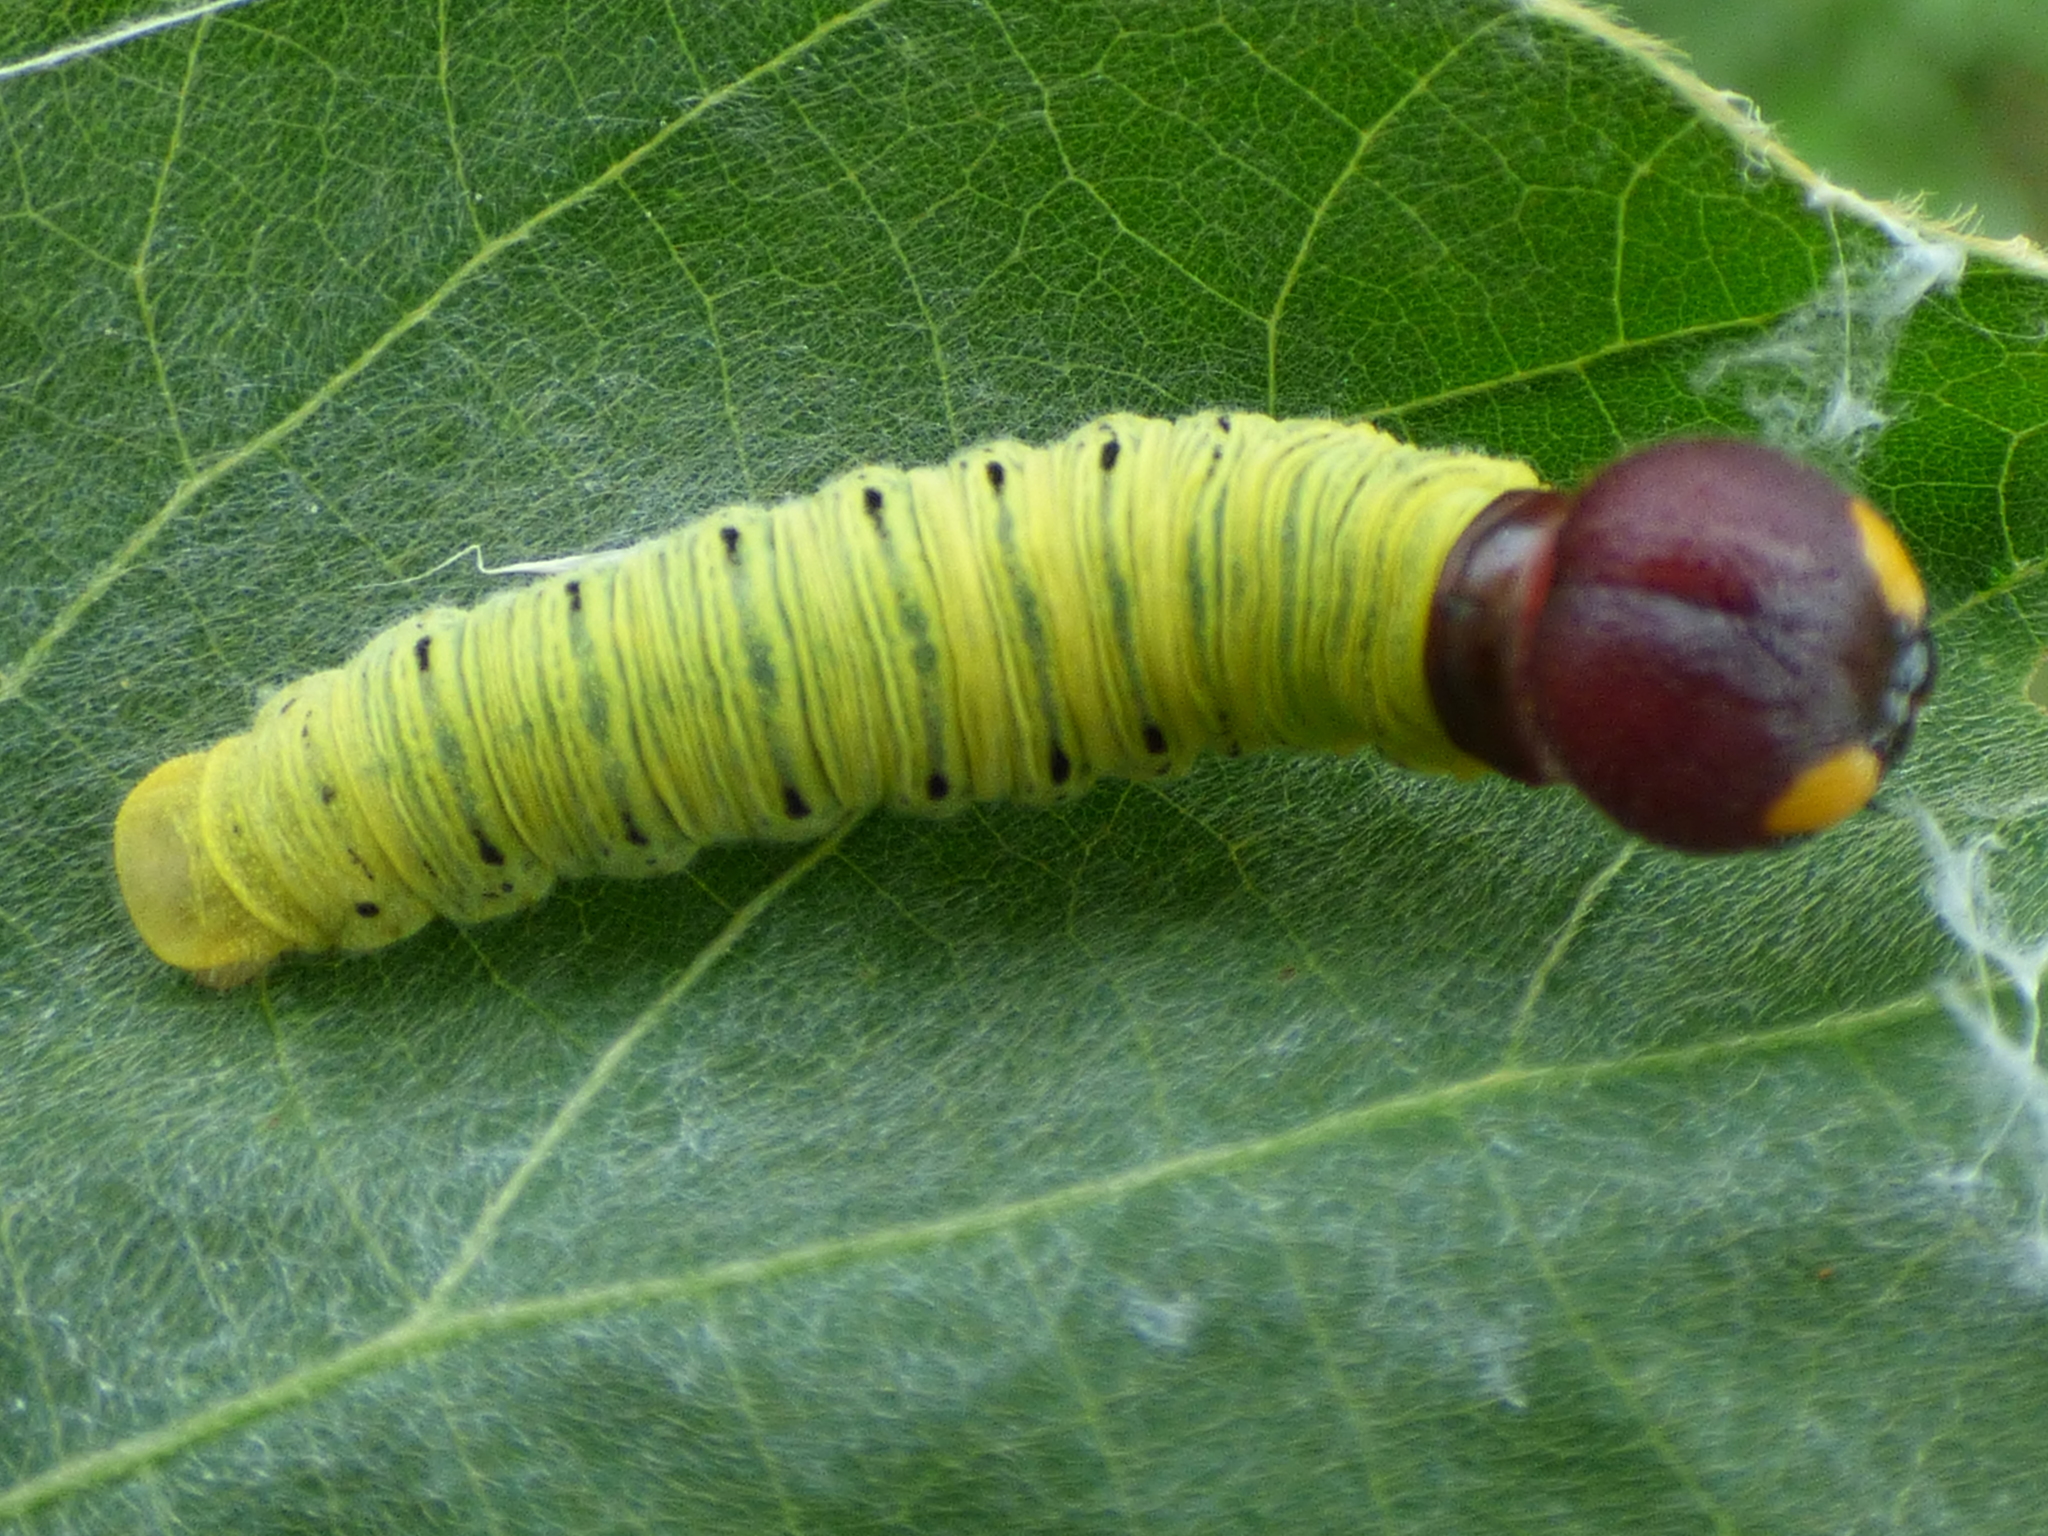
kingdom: Animalia
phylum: Arthropoda
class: Insecta
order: Lepidoptera
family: Hesperiidae
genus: Epargyreus
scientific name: Epargyreus clarus
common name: Silver-spotted skipper
